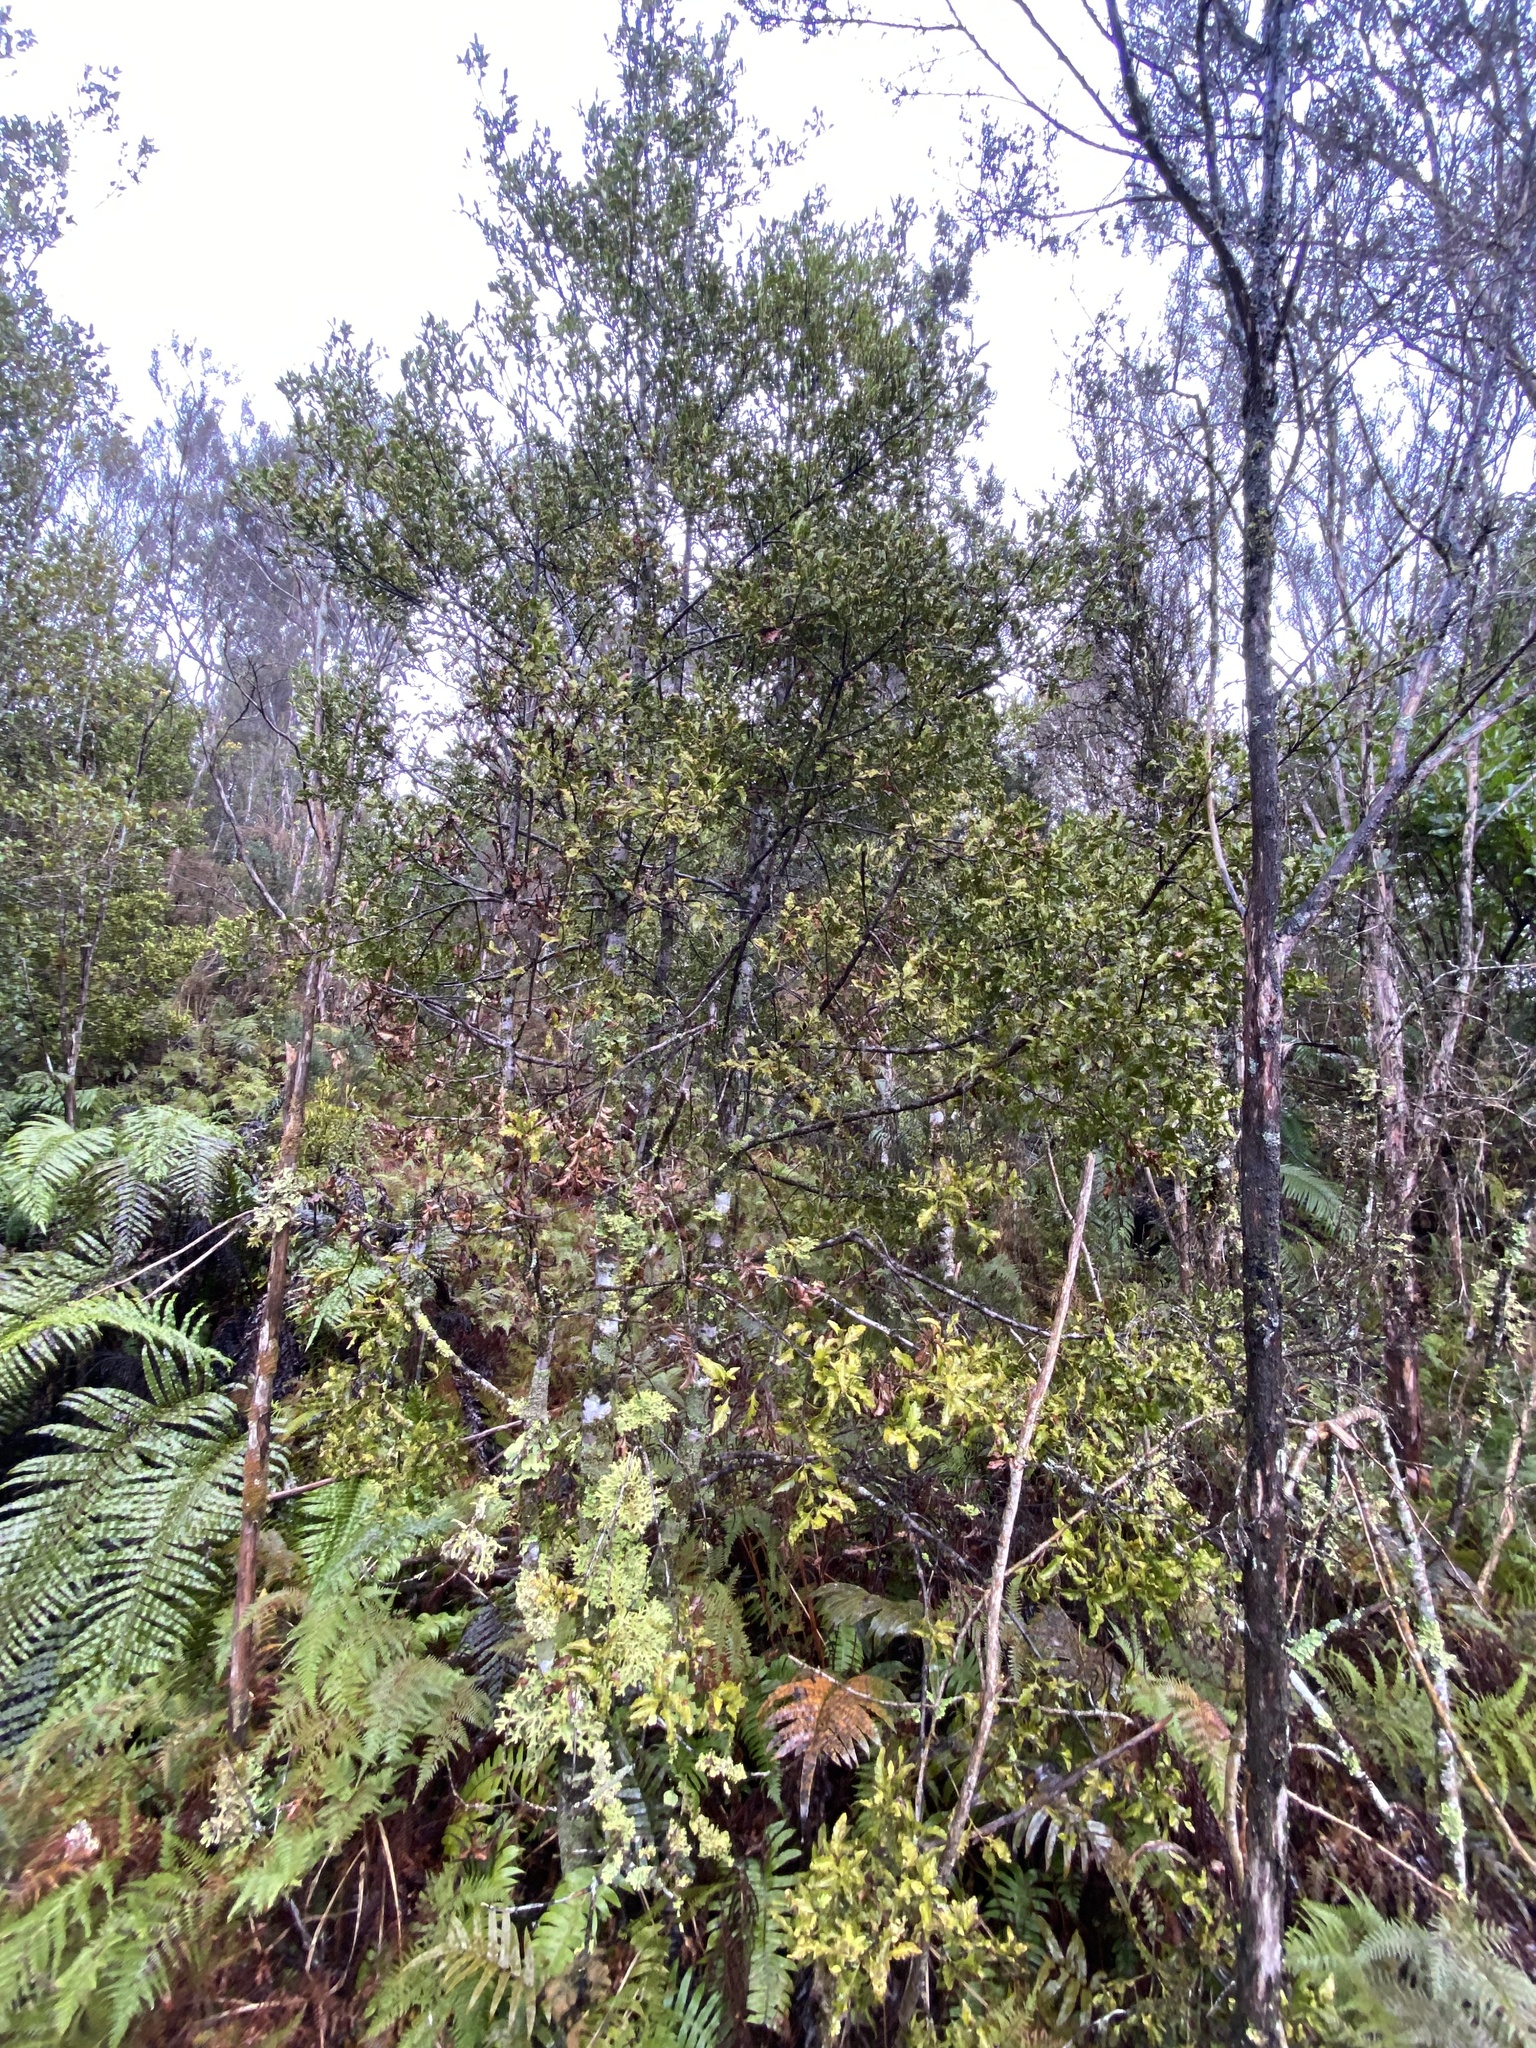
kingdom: Plantae
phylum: Tracheophyta
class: Pinopsida
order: Pinales
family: Phyllocladaceae
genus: Phyllocladus
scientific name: Phyllocladus trichomanoides
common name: Celery pine
